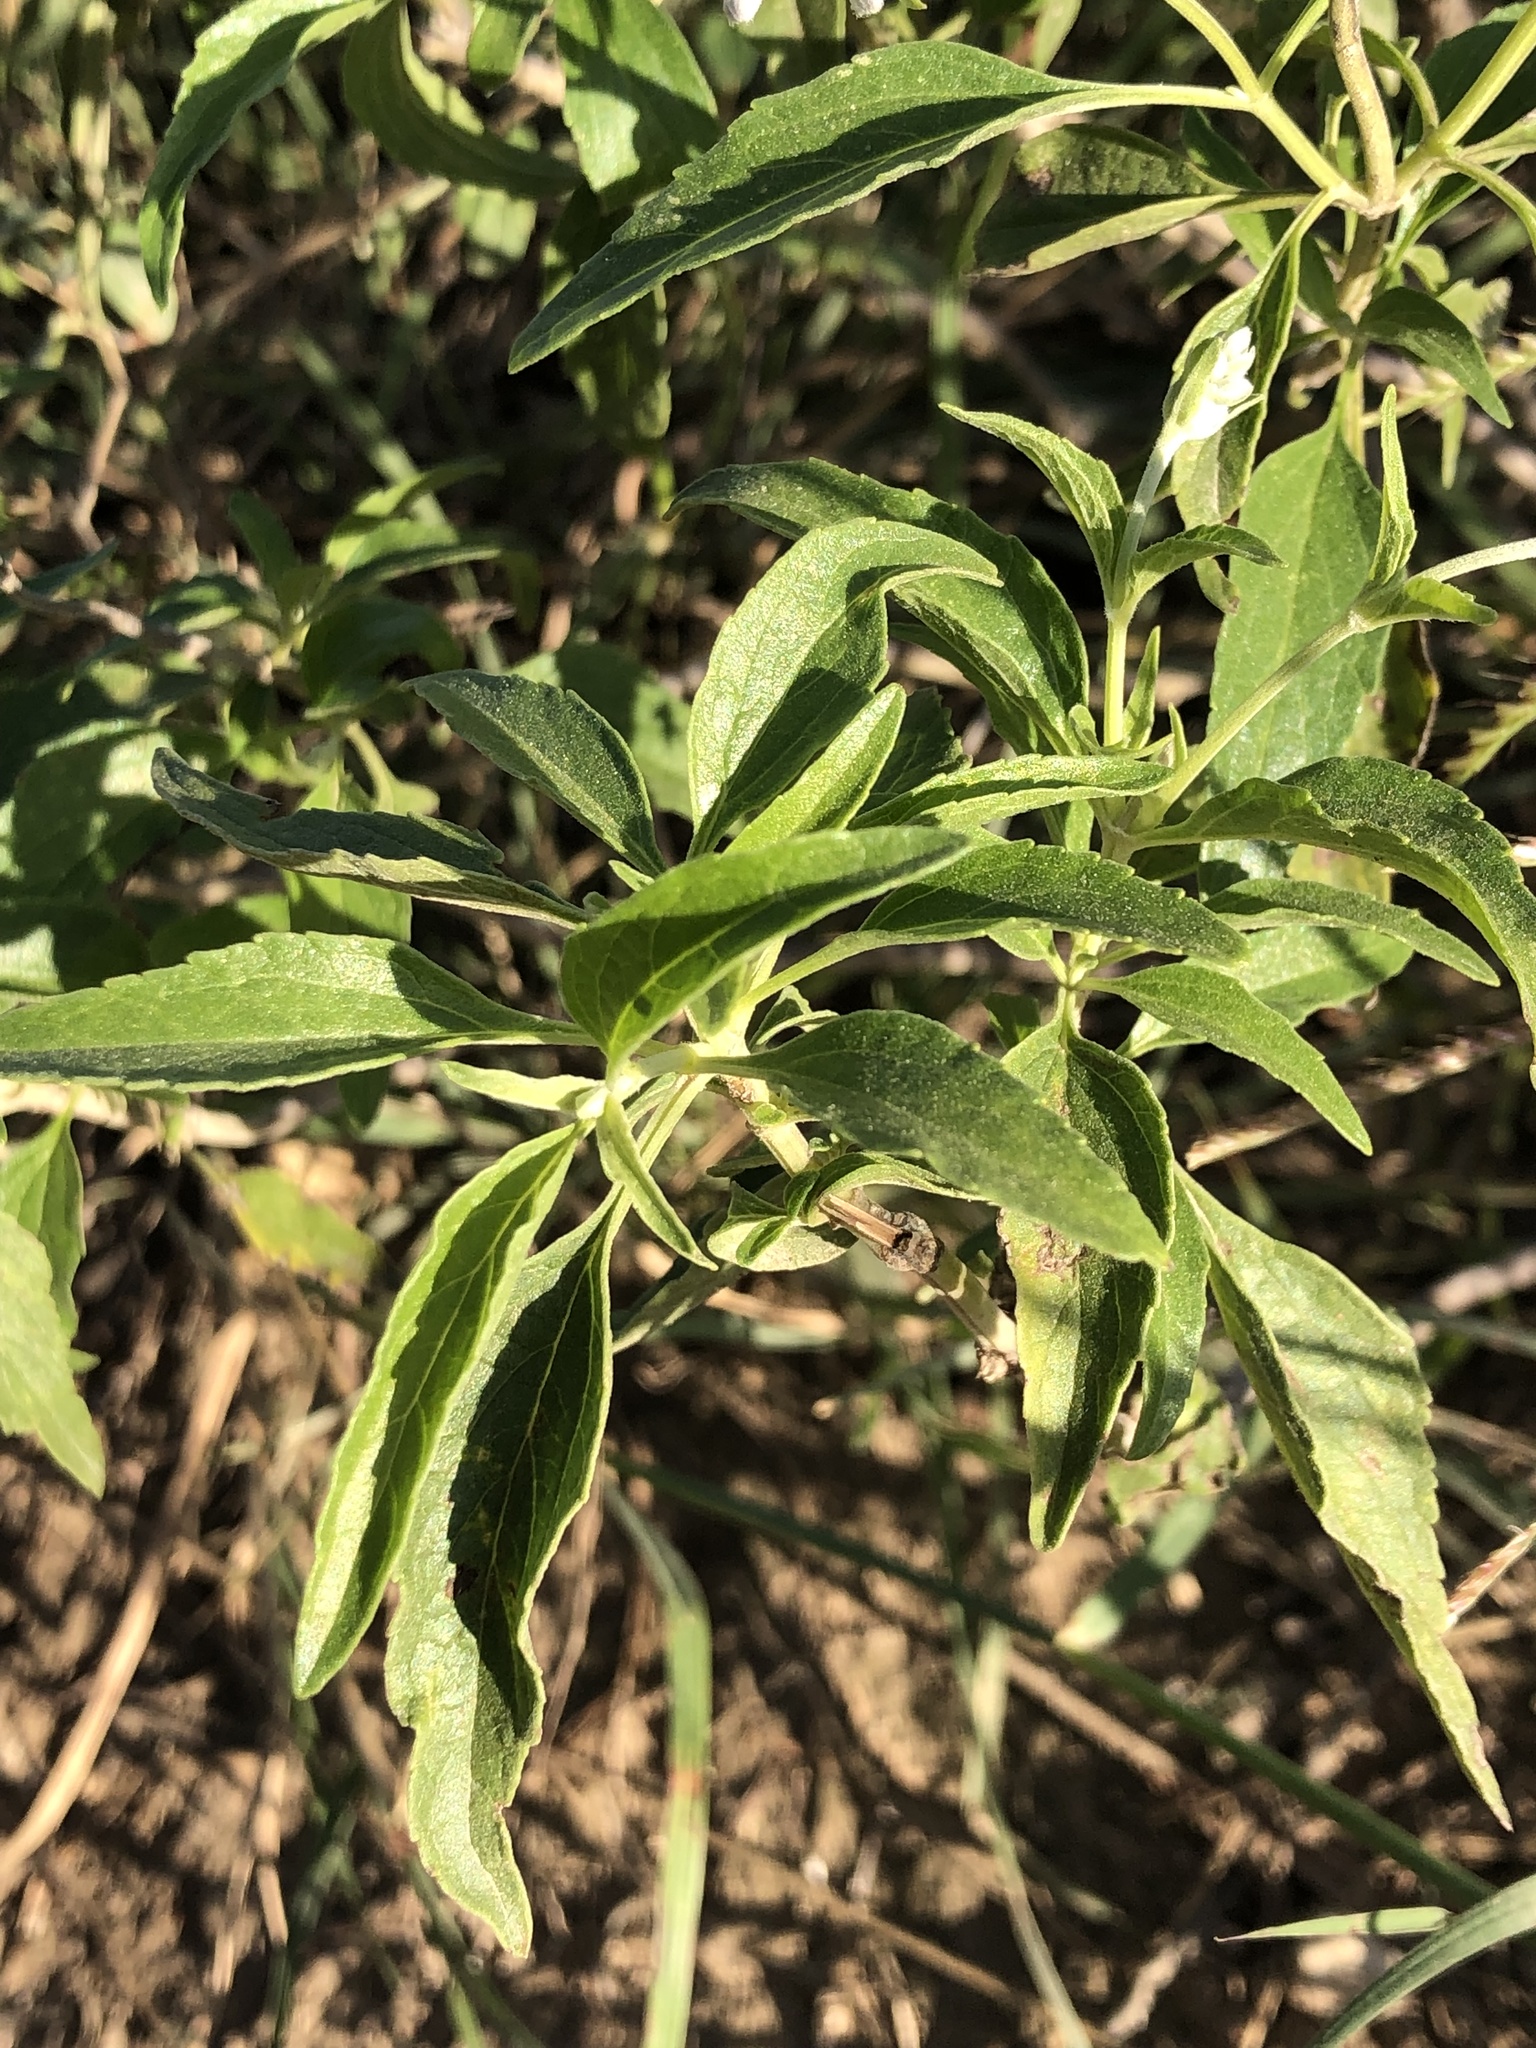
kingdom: Plantae
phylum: Tracheophyta
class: Magnoliopsida
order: Lamiales
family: Lamiaceae
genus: Salvia
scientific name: Salvia farinacea
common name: Mealy sage
